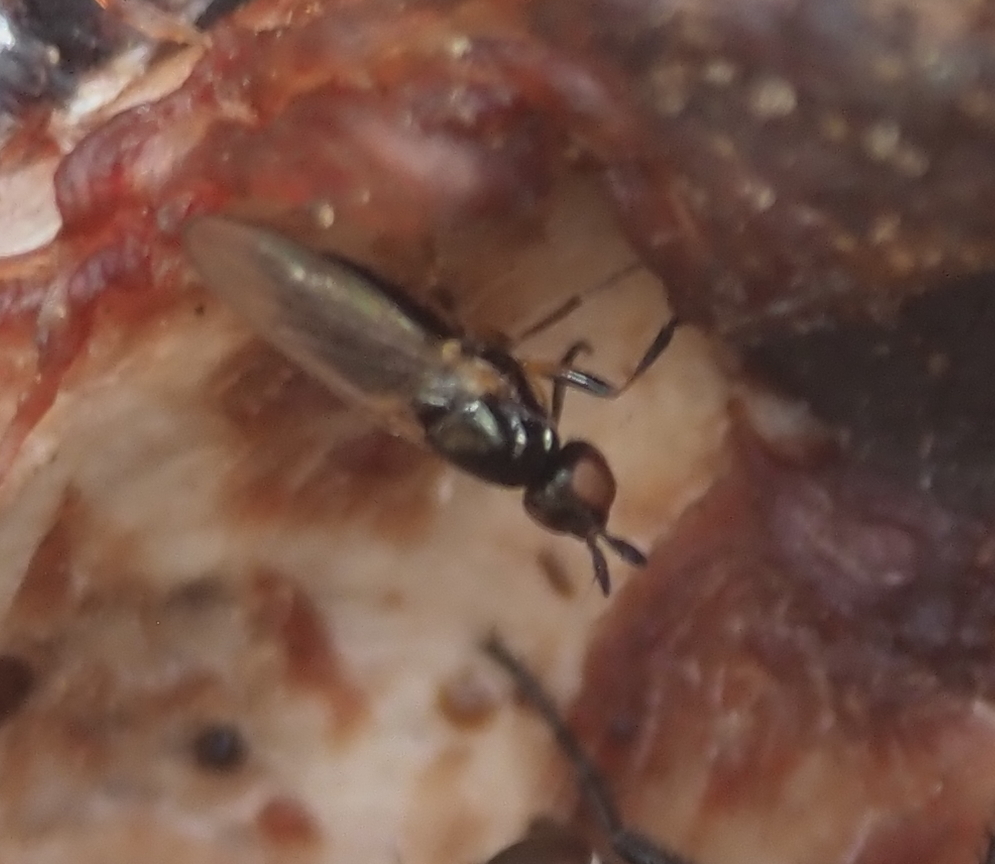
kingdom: Animalia
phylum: Arthropoda
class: Insecta
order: Diptera
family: Piophilidae
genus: Prochyliza
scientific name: Prochyliza xanthostoma
